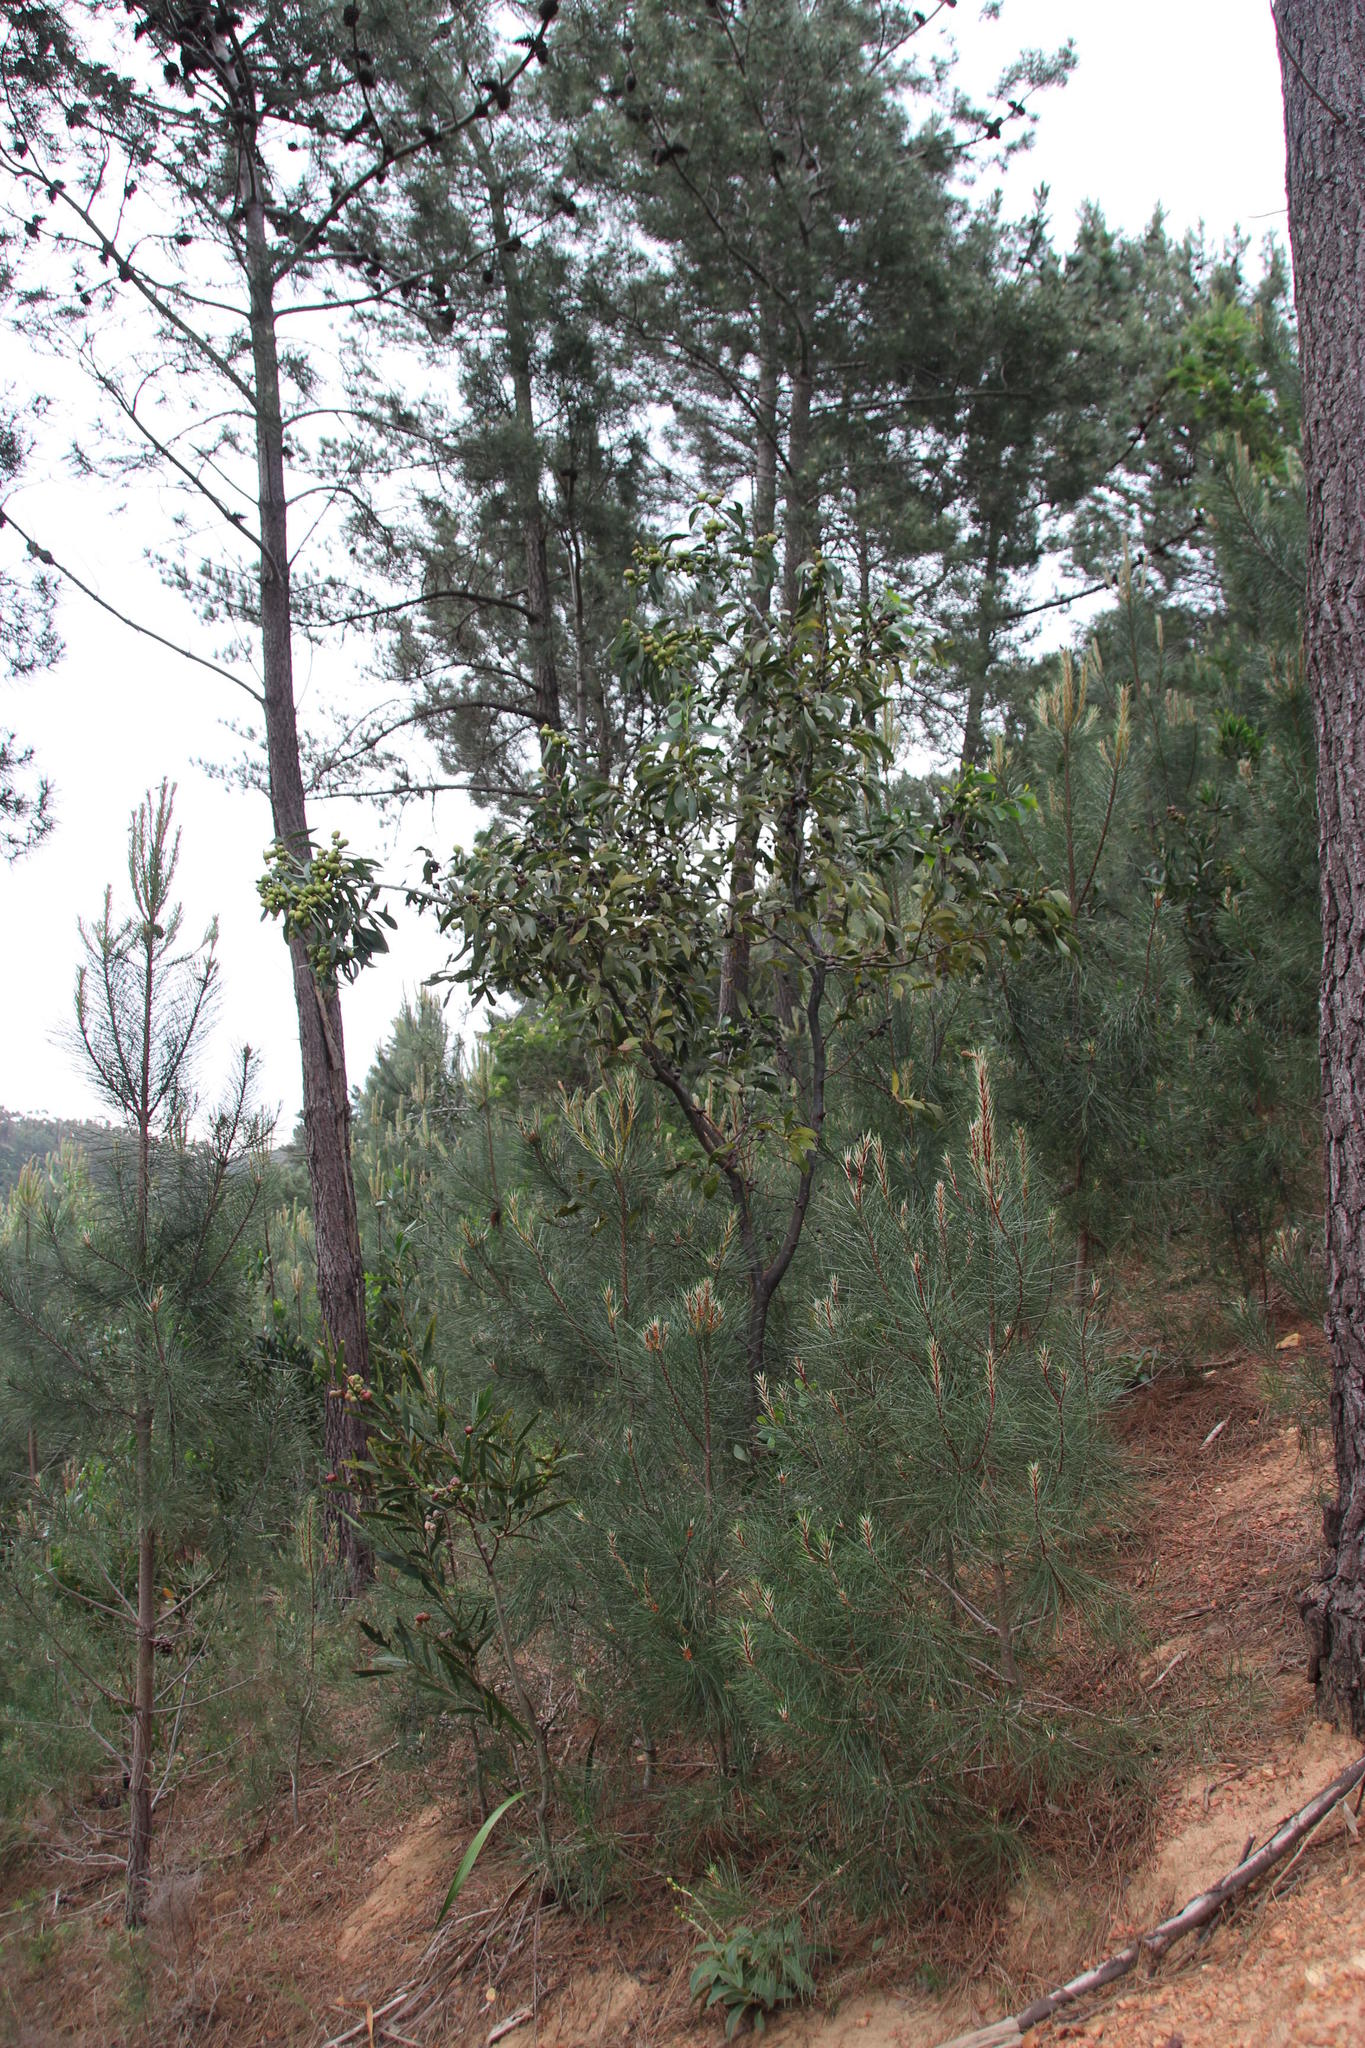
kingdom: Plantae
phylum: Tracheophyta
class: Magnoliopsida
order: Fabales
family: Fabaceae
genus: Acacia
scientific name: Acacia pycnantha
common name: Golden wattle
